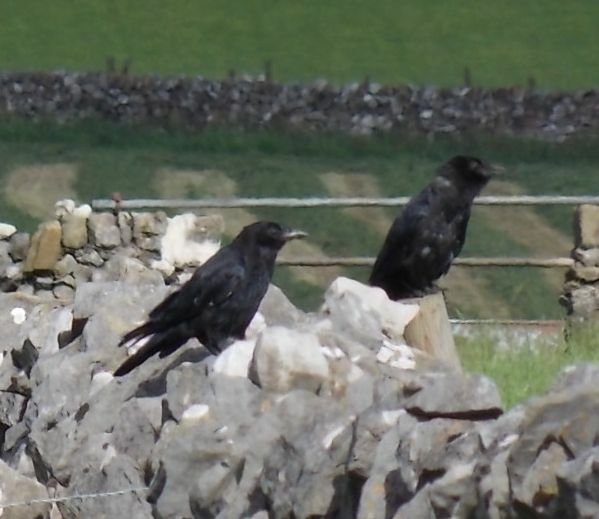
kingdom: Animalia
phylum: Chordata
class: Aves
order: Passeriformes
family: Corvidae
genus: Corvus
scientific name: Corvus corone
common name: Carrion crow
